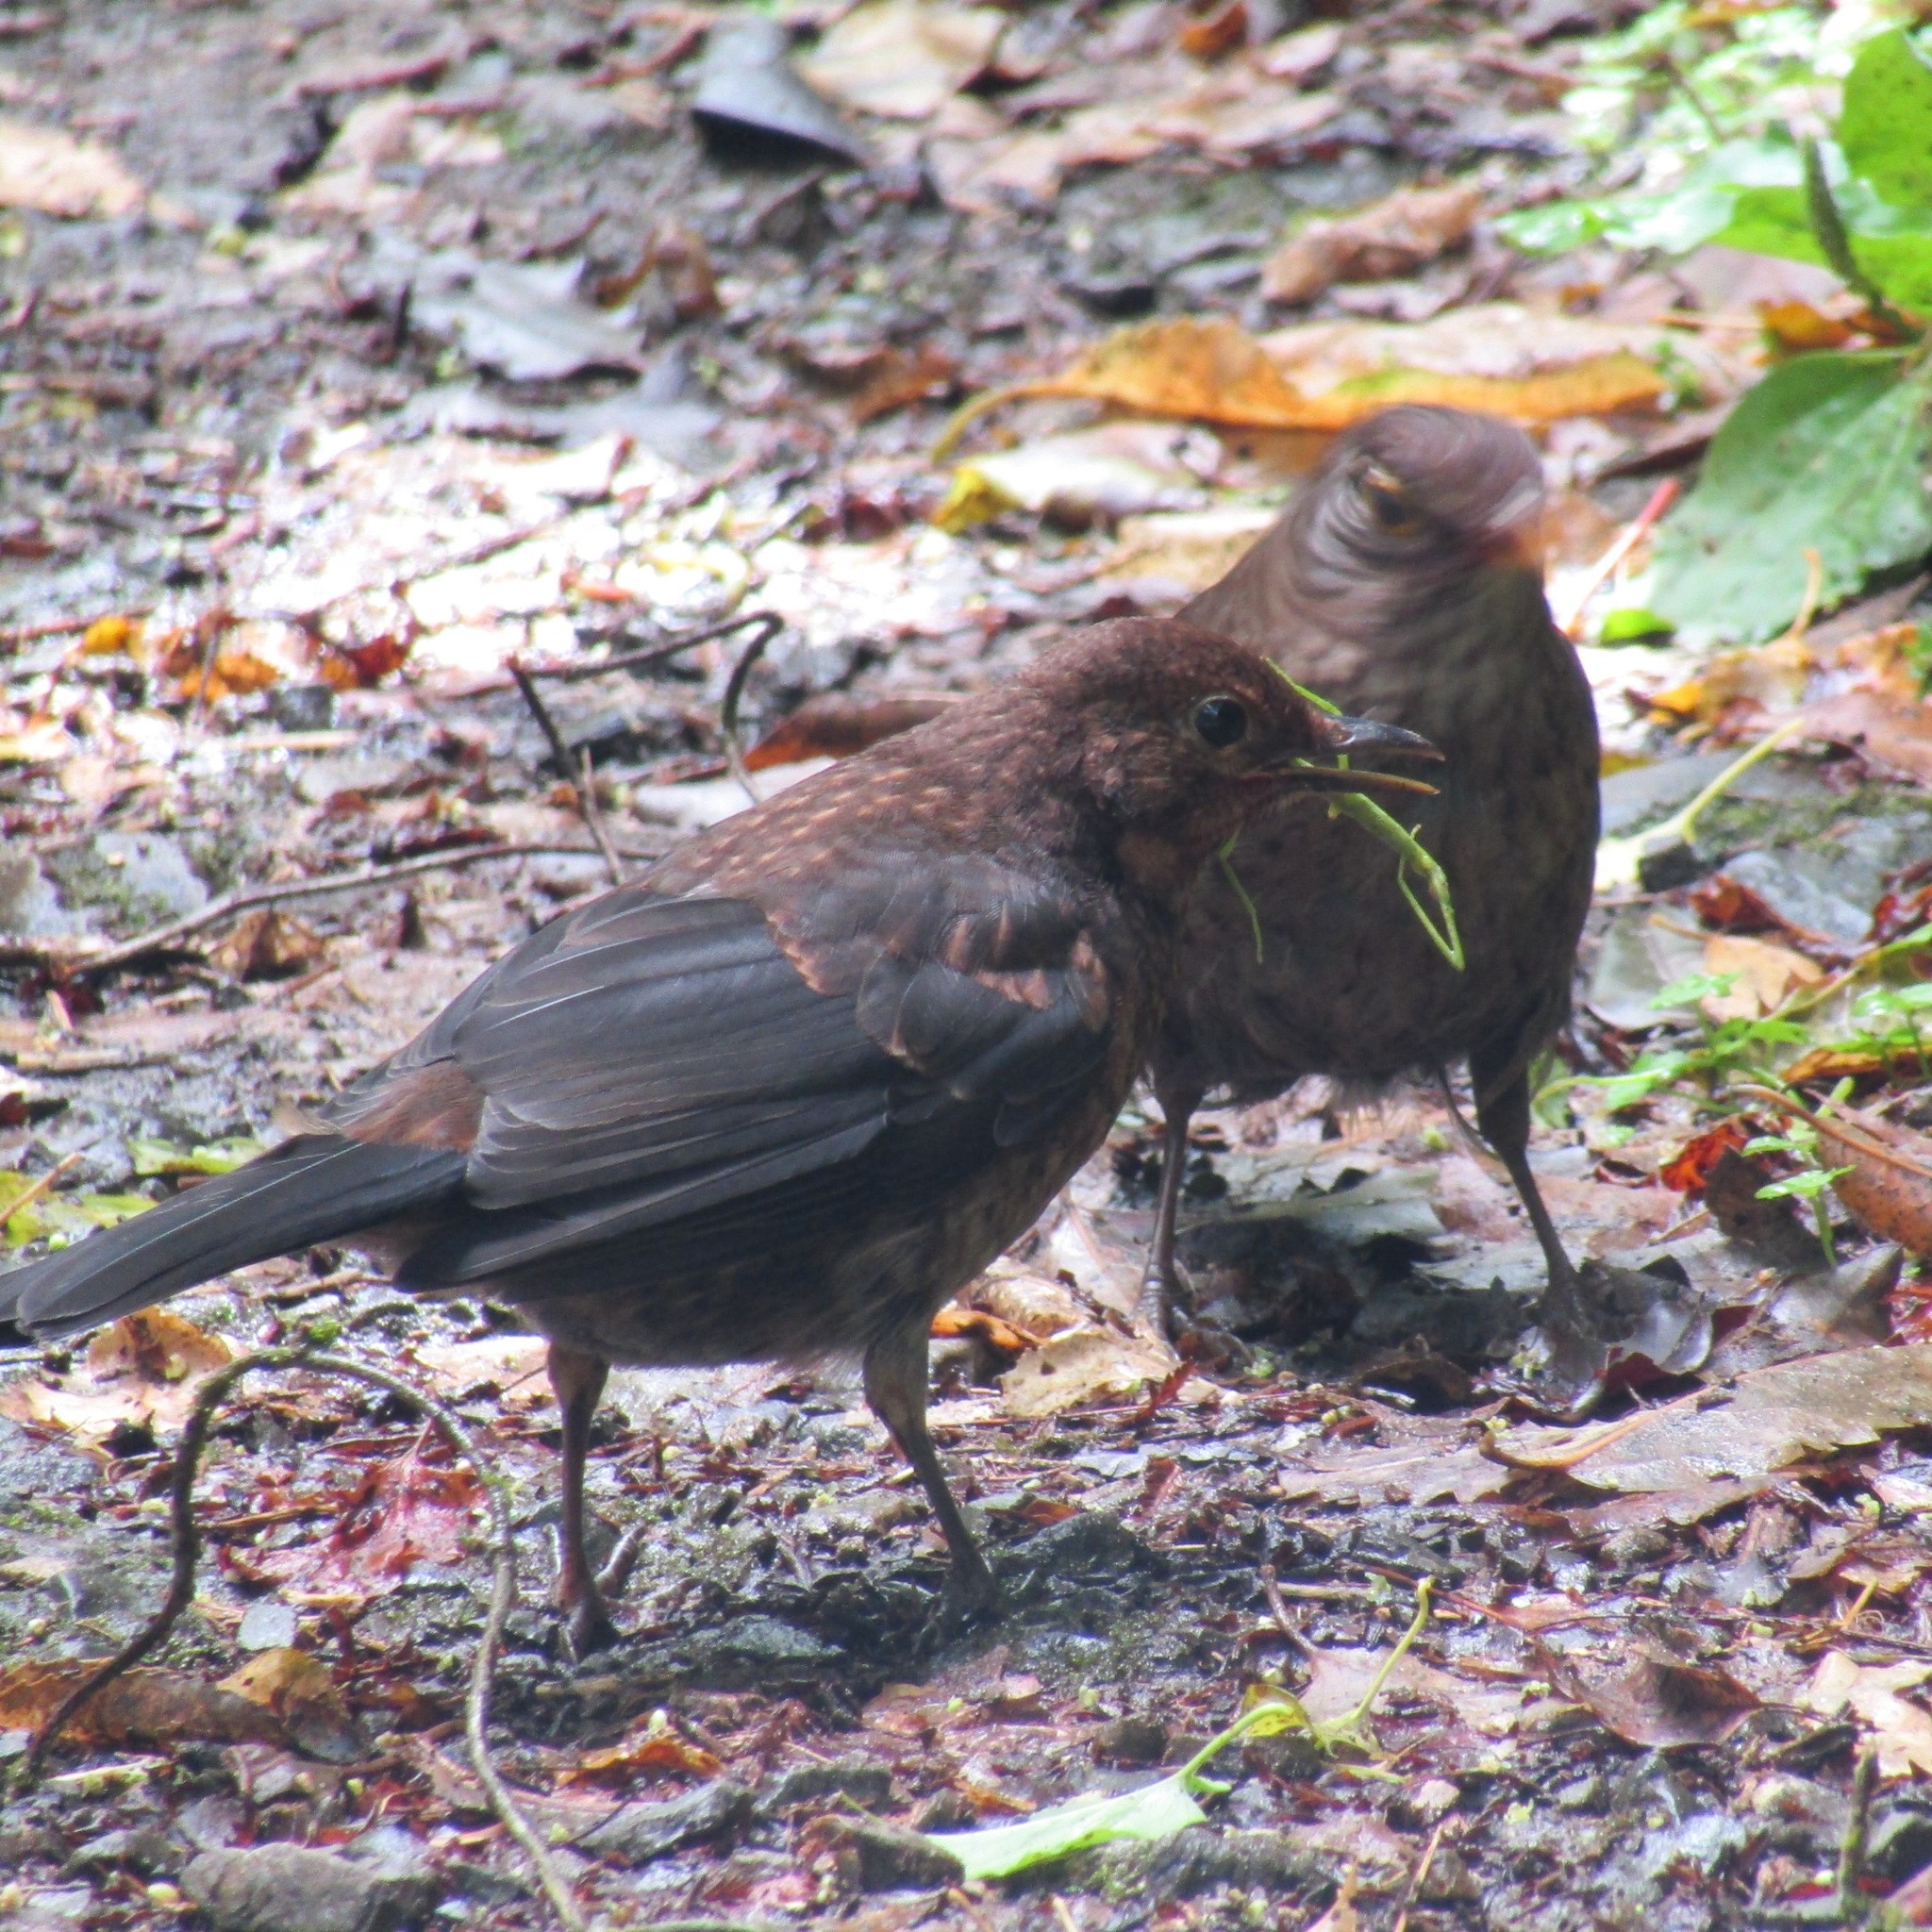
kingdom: Animalia
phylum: Chordata
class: Aves
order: Passeriformes
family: Turdidae
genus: Turdus
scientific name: Turdus merula
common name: Common blackbird
